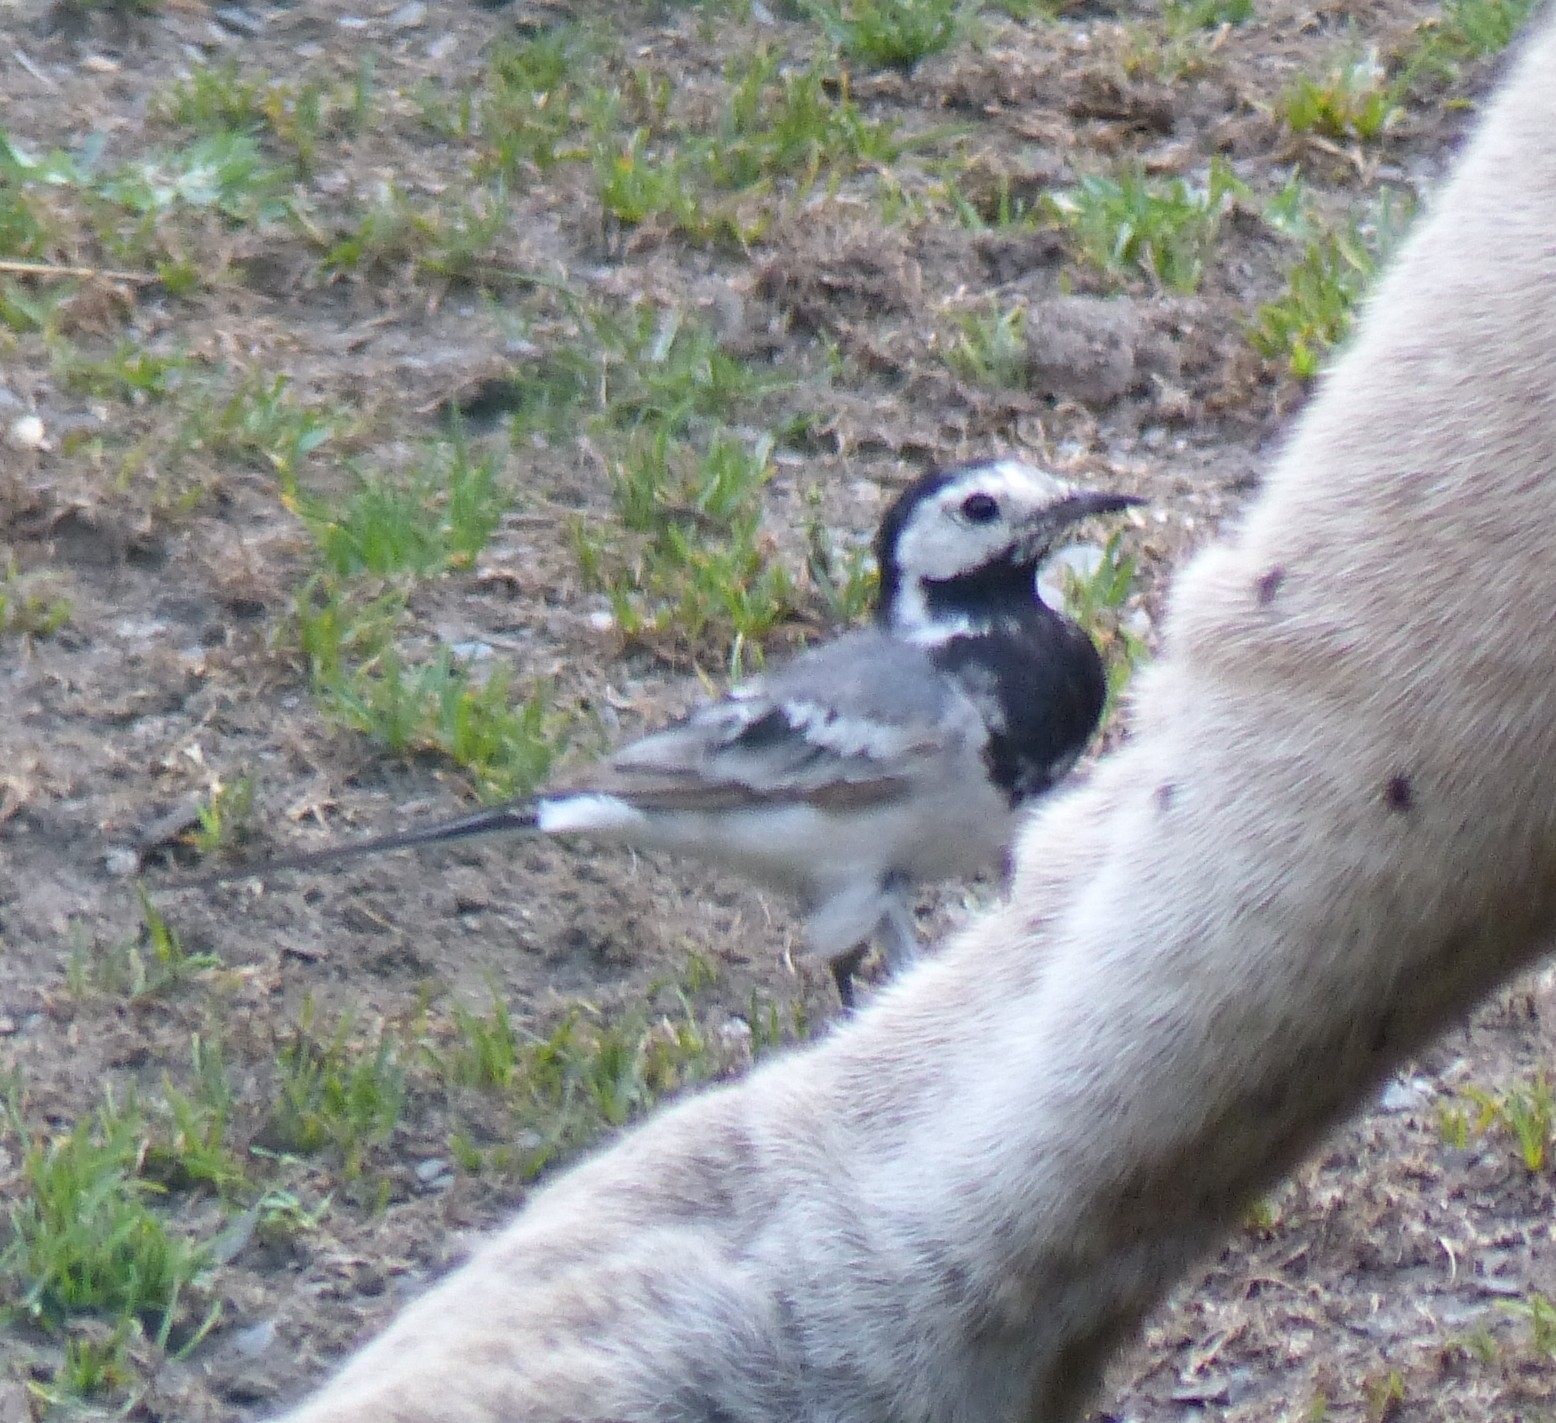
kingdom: Animalia
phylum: Chordata
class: Aves
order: Passeriformes
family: Motacillidae
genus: Motacilla
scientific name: Motacilla alba
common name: White wagtail
